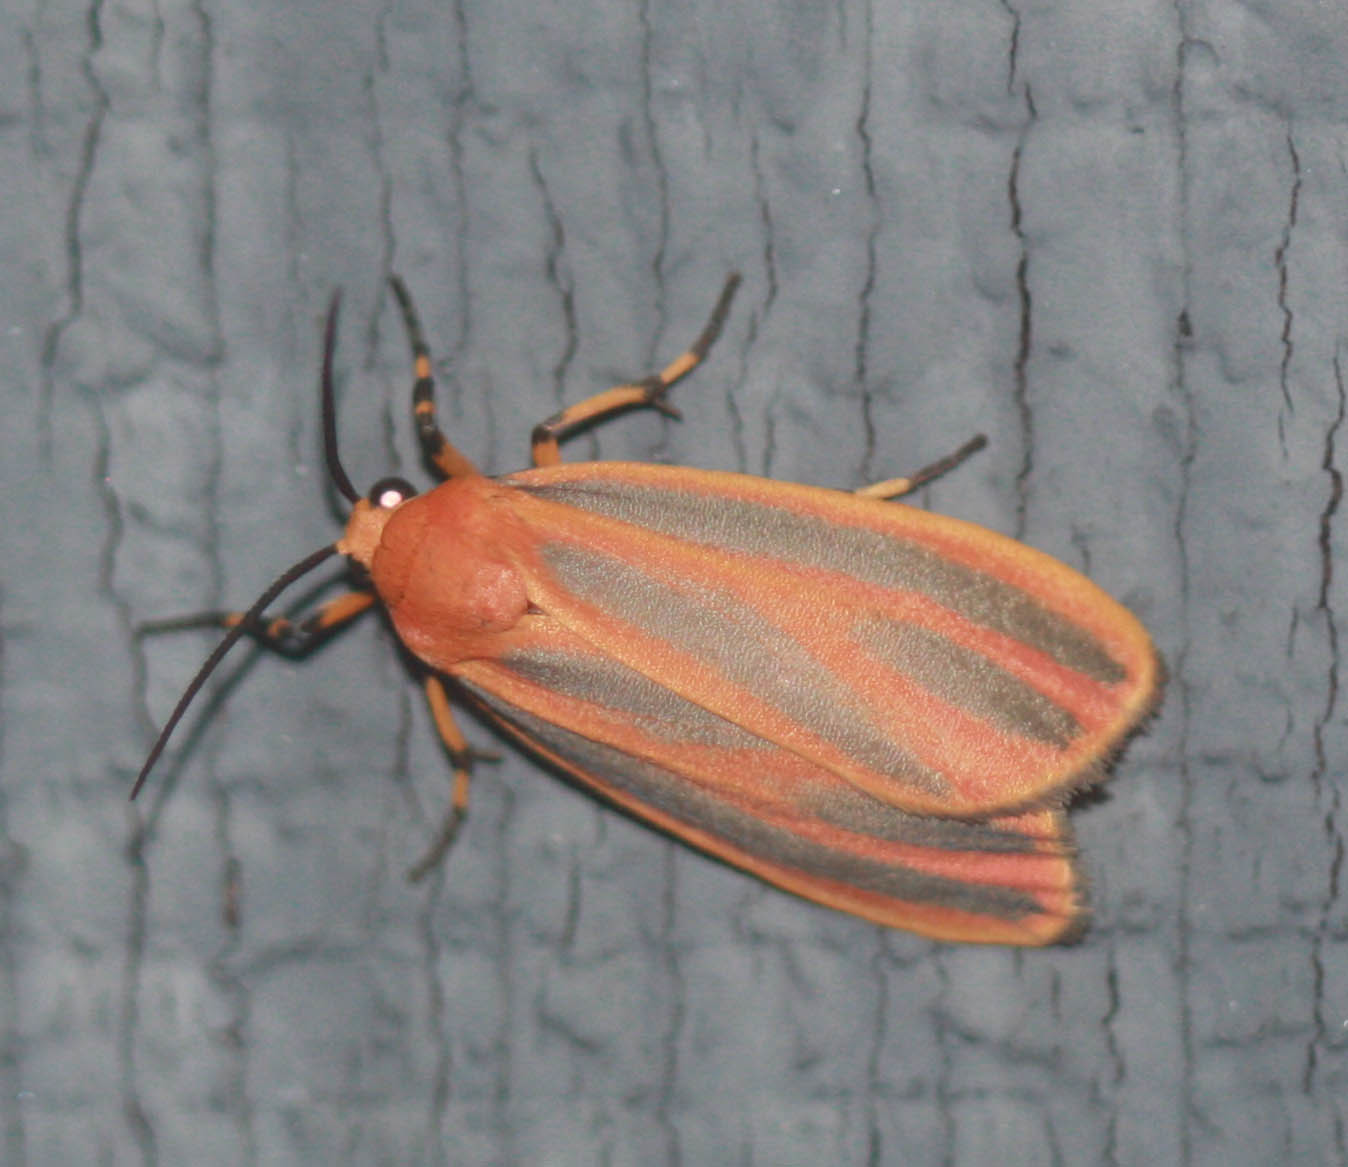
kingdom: Animalia
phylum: Arthropoda
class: Insecta
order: Lepidoptera
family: Erebidae
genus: Hypoprepia
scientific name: Hypoprepia fucosa
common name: Painted lichen moth
